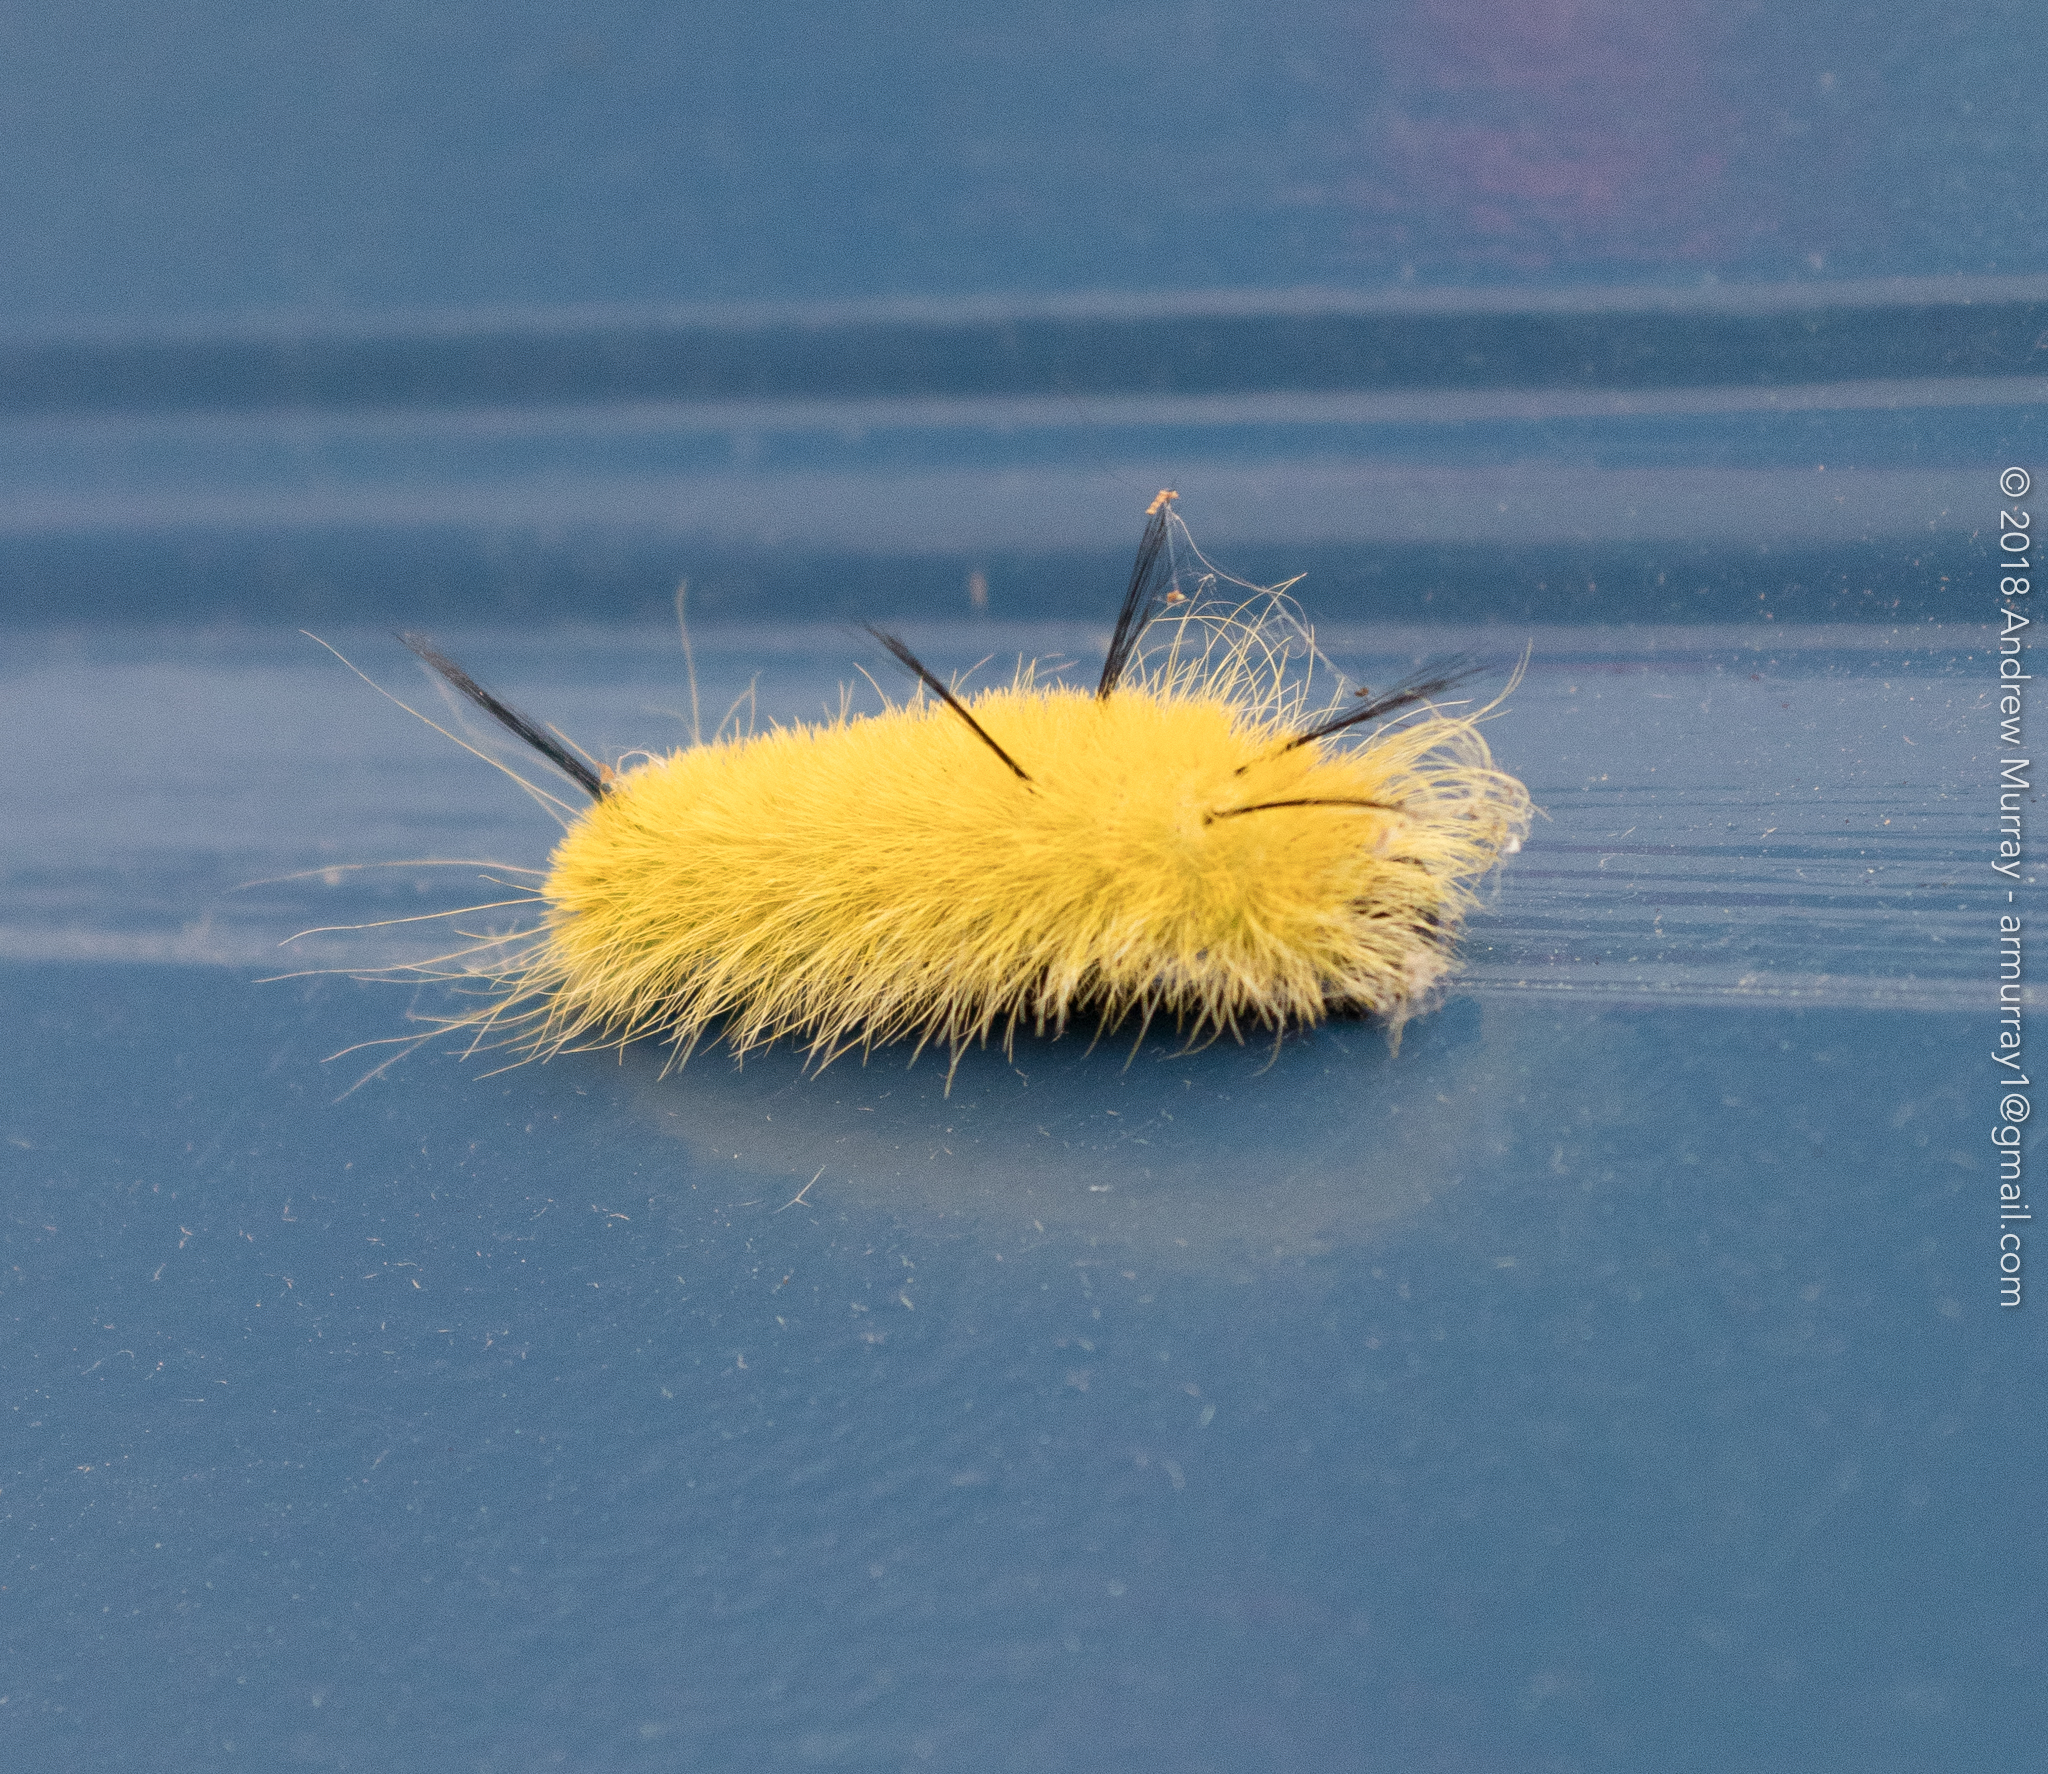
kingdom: Animalia
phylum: Arthropoda
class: Insecta
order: Lepidoptera
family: Noctuidae
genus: Acronicta
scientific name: Acronicta americana
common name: American dagger
